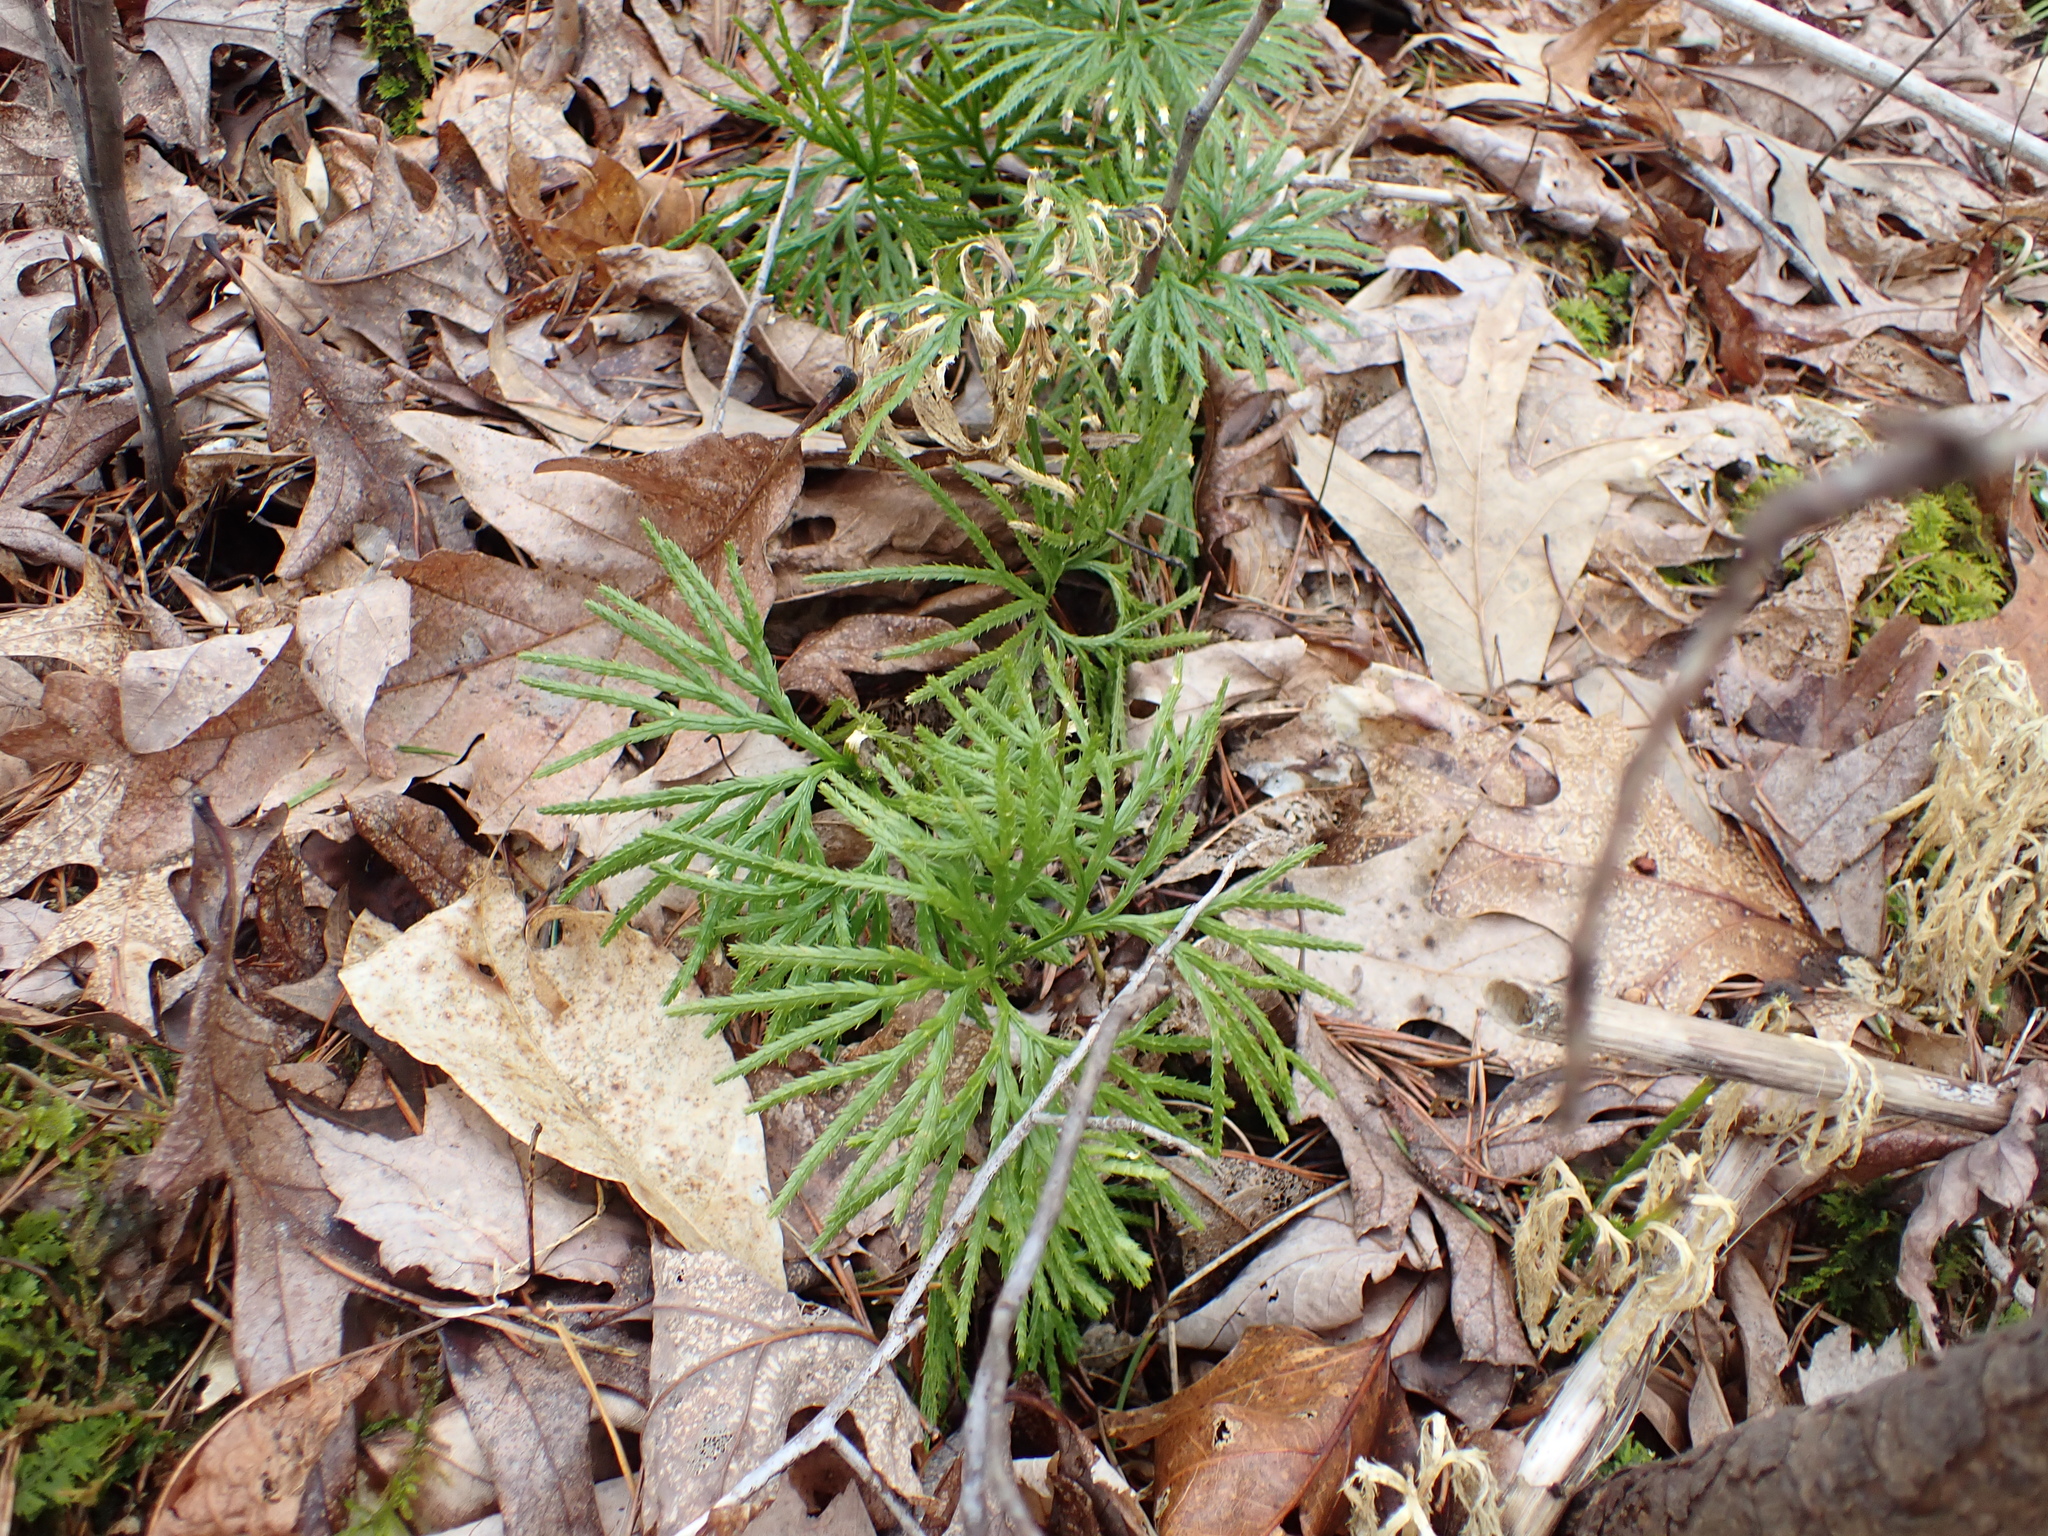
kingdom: Plantae
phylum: Tracheophyta
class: Lycopodiopsida
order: Lycopodiales
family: Lycopodiaceae
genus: Diphasiastrum
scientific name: Diphasiastrum digitatum
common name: Southern running-pine
